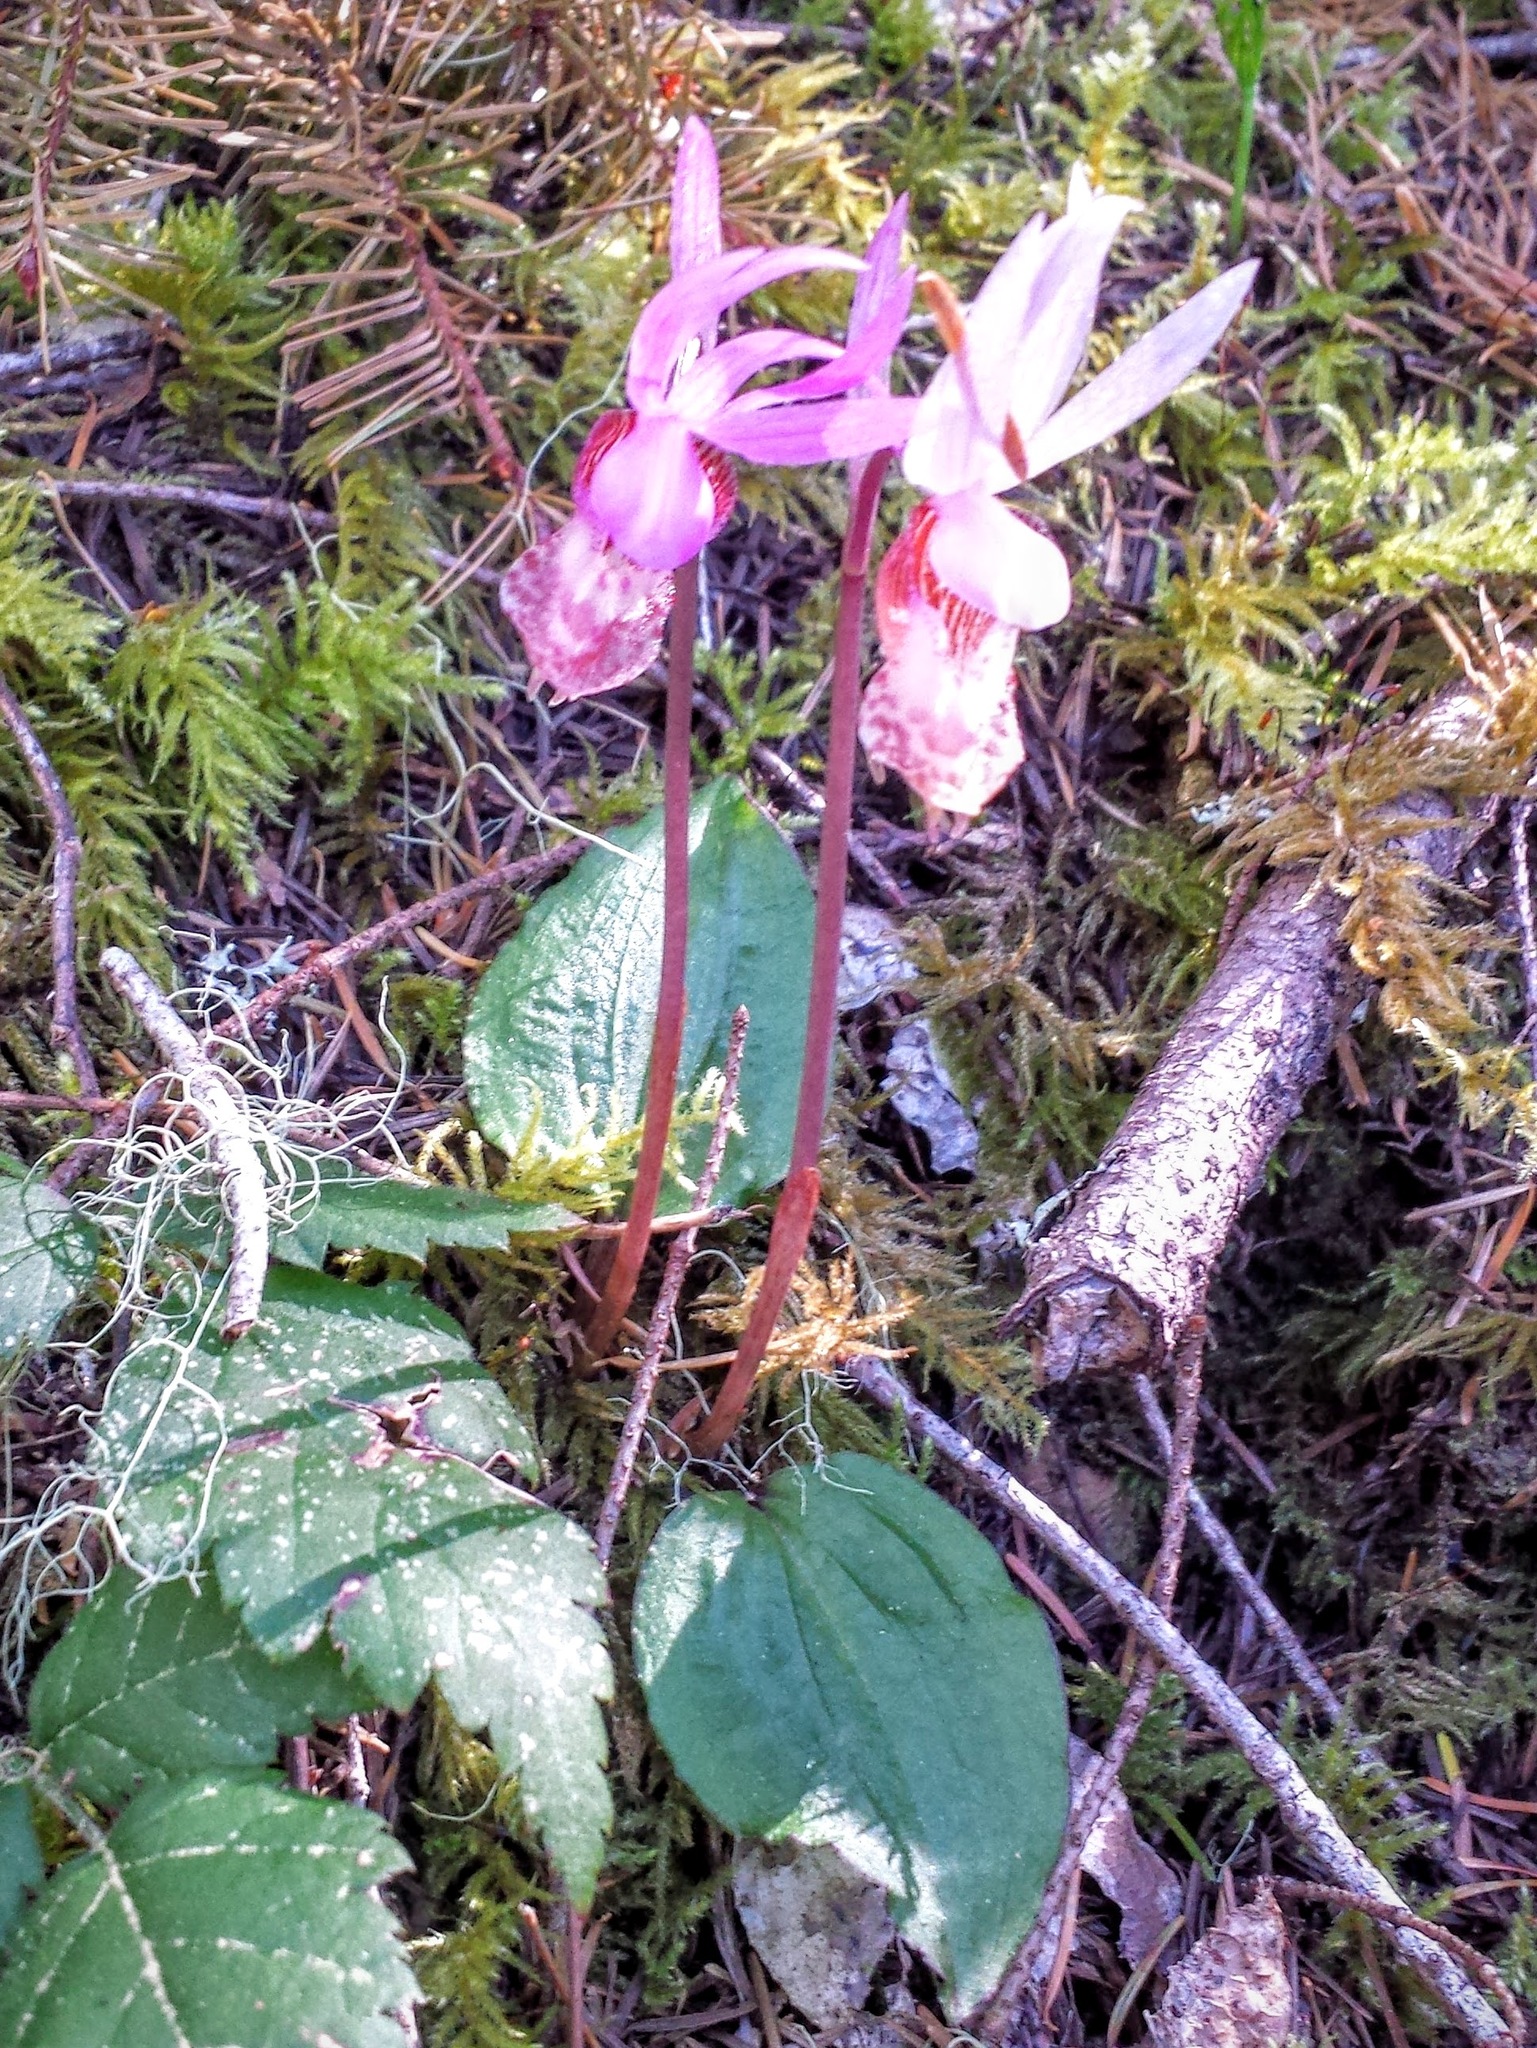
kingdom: Plantae
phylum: Tracheophyta
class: Liliopsida
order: Asparagales
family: Orchidaceae
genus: Calypso
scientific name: Calypso bulbosa
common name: Calypso
